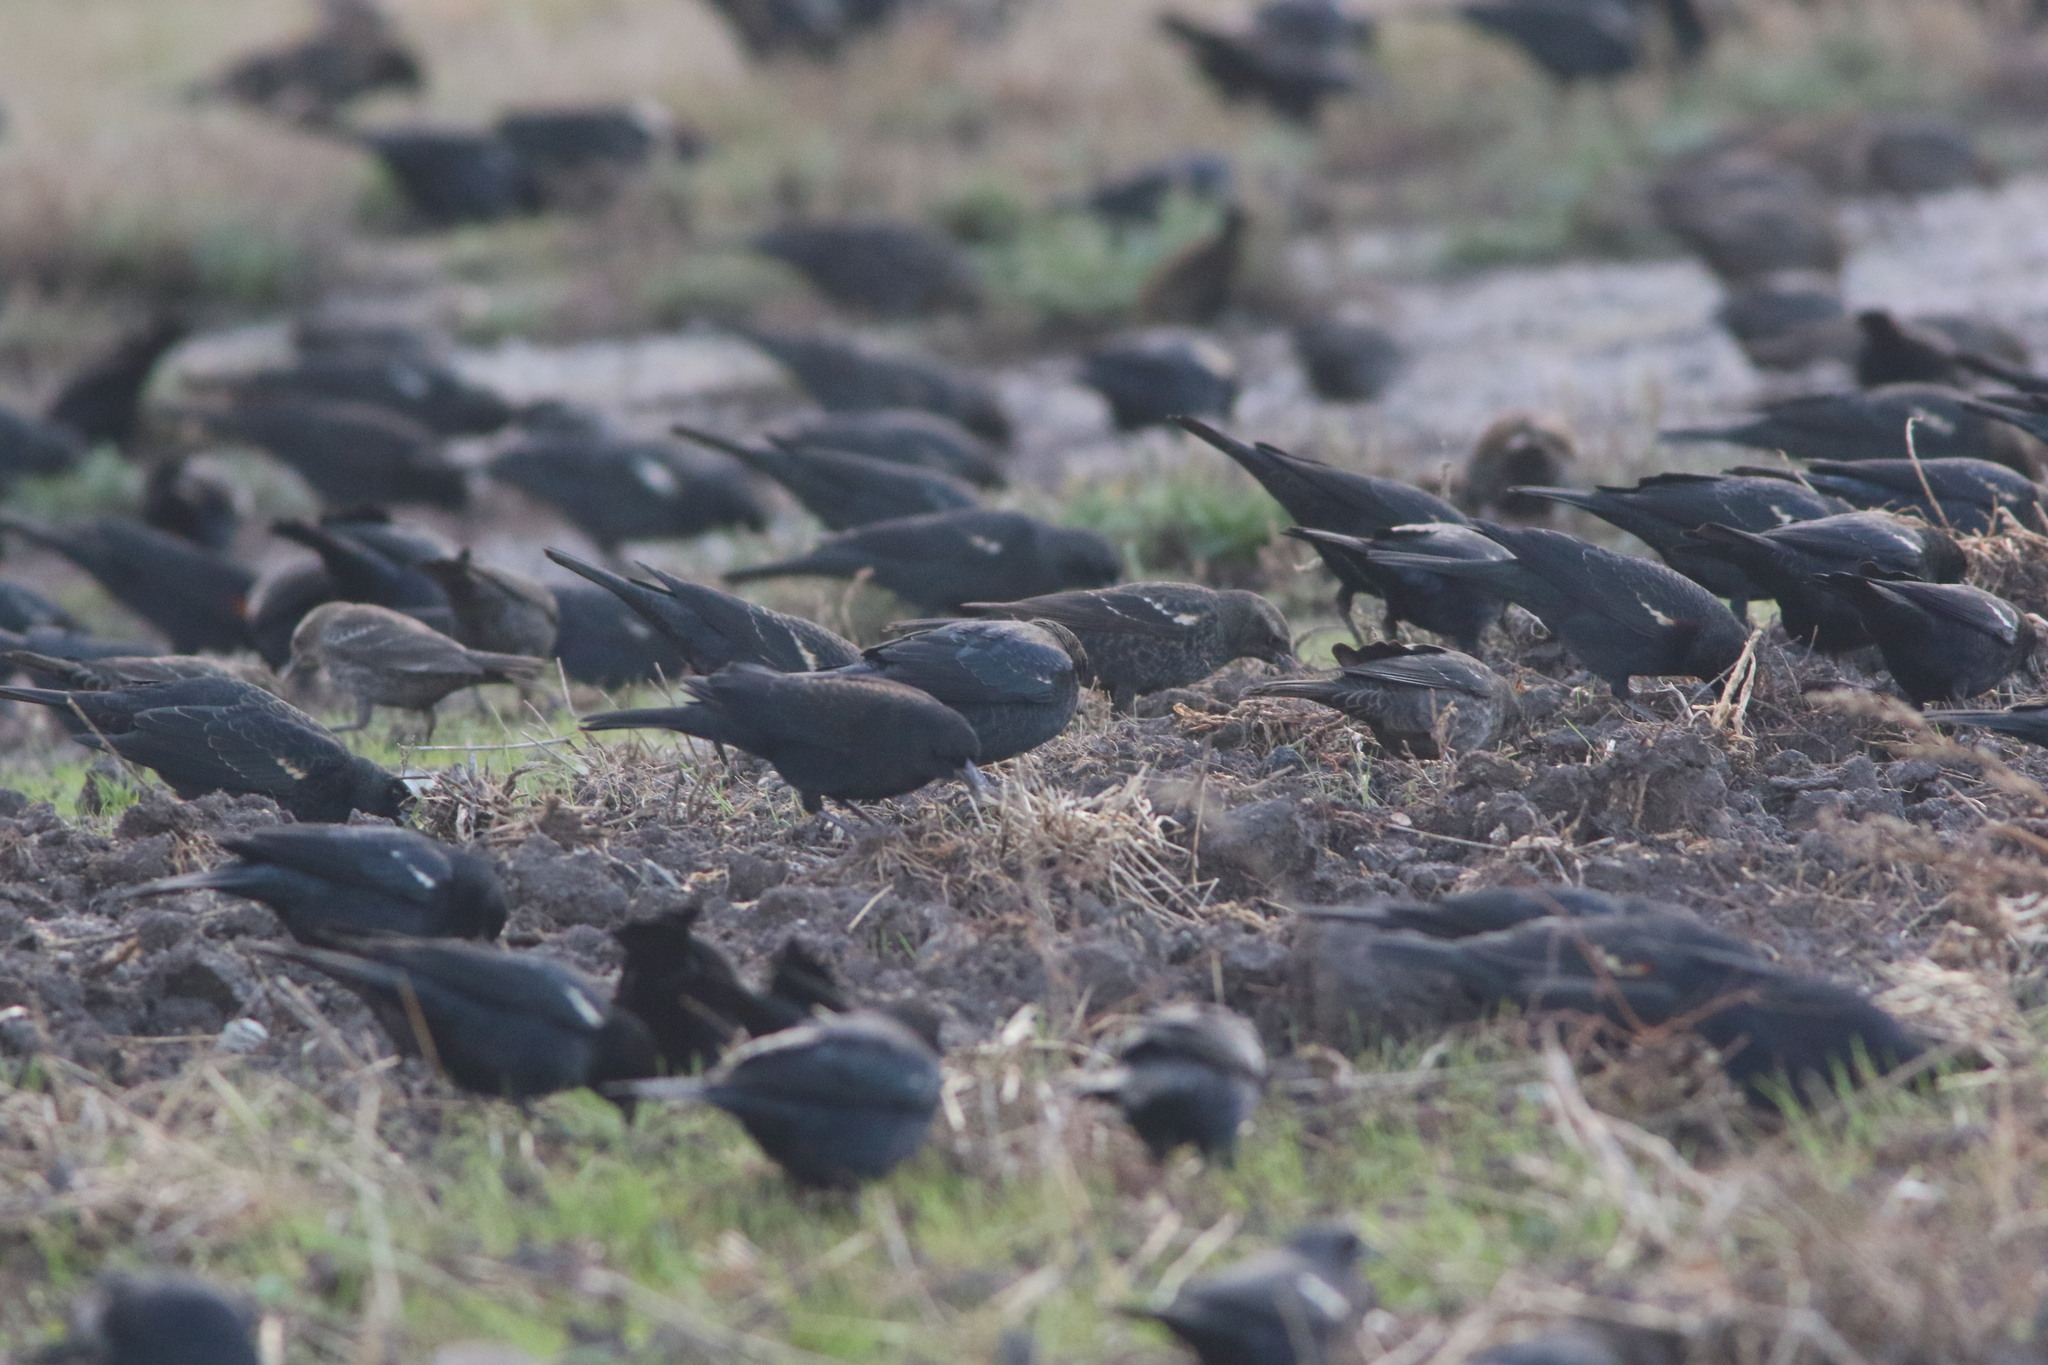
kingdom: Animalia
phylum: Chordata
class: Aves
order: Passeriformes
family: Icteridae
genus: Agelaius
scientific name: Agelaius tricolor
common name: Tricolored blackbird
